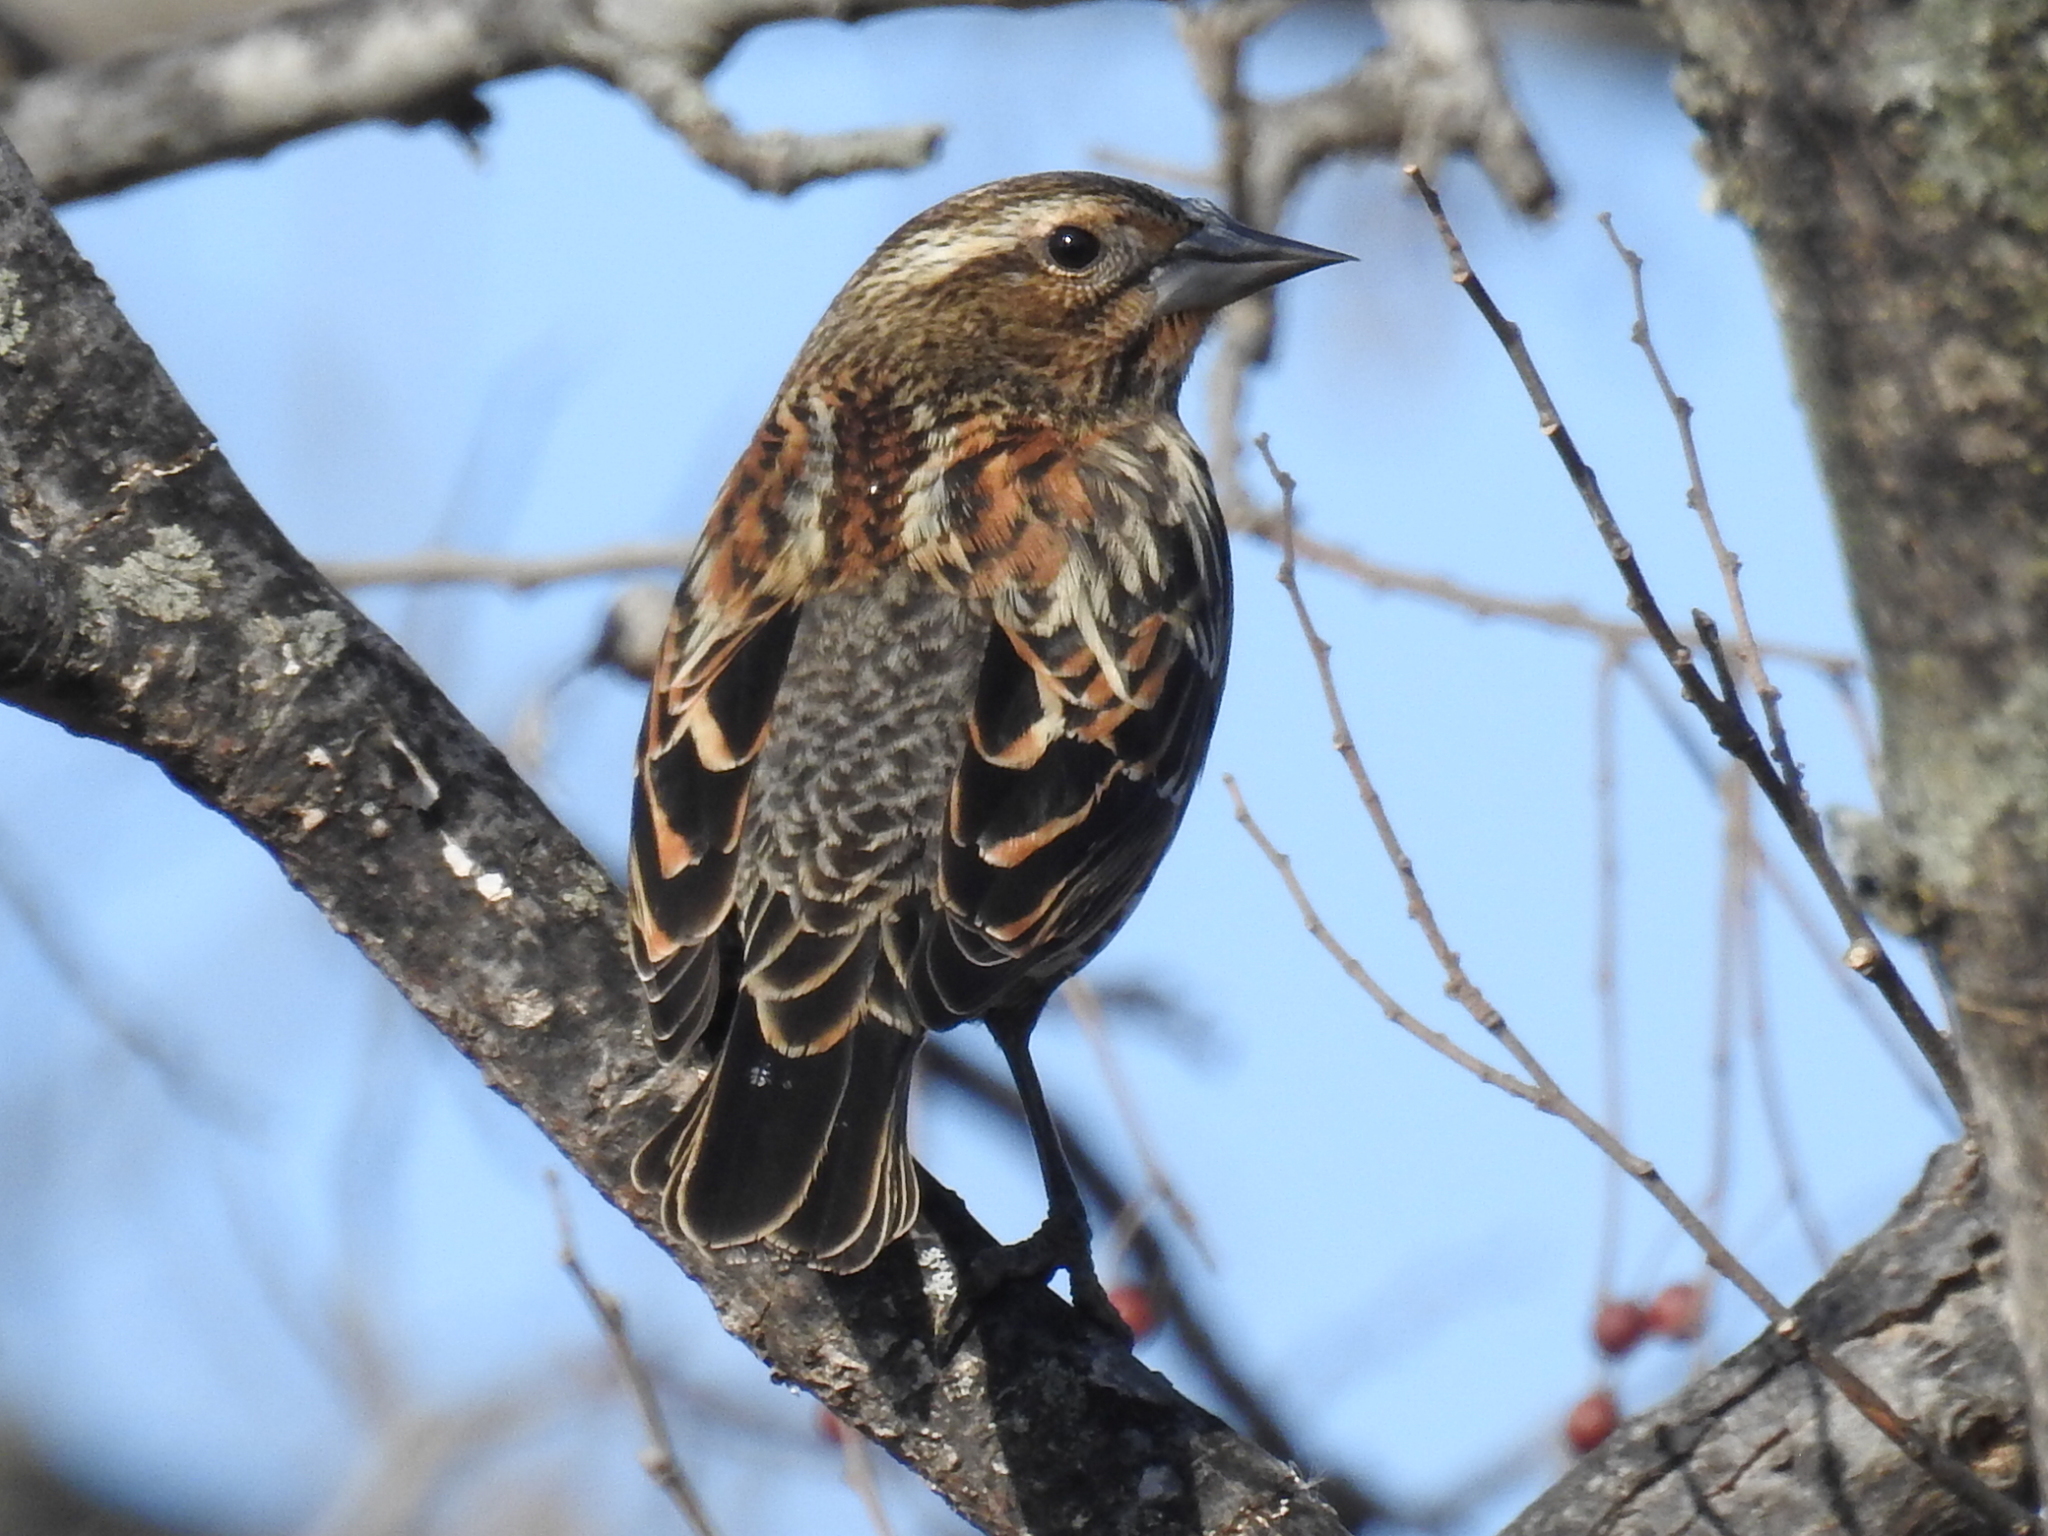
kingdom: Animalia
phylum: Chordata
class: Aves
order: Passeriformes
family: Icteridae
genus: Agelaius
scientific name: Agelaius phoeniceus
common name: Red-winged blackbird
